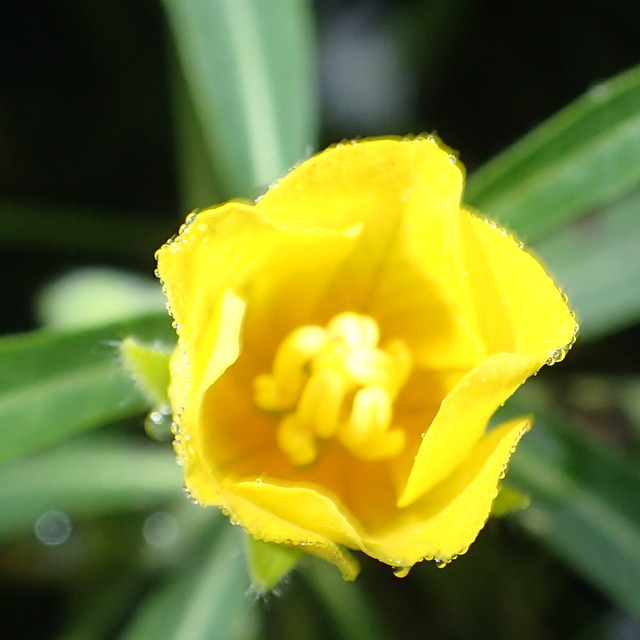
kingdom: Plantae
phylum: Tracheophyta
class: Magnoliopsida
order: Myrtales
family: Onagraceae
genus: Ludwigia
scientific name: Ludwigia hexapetala
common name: Water-primrose
